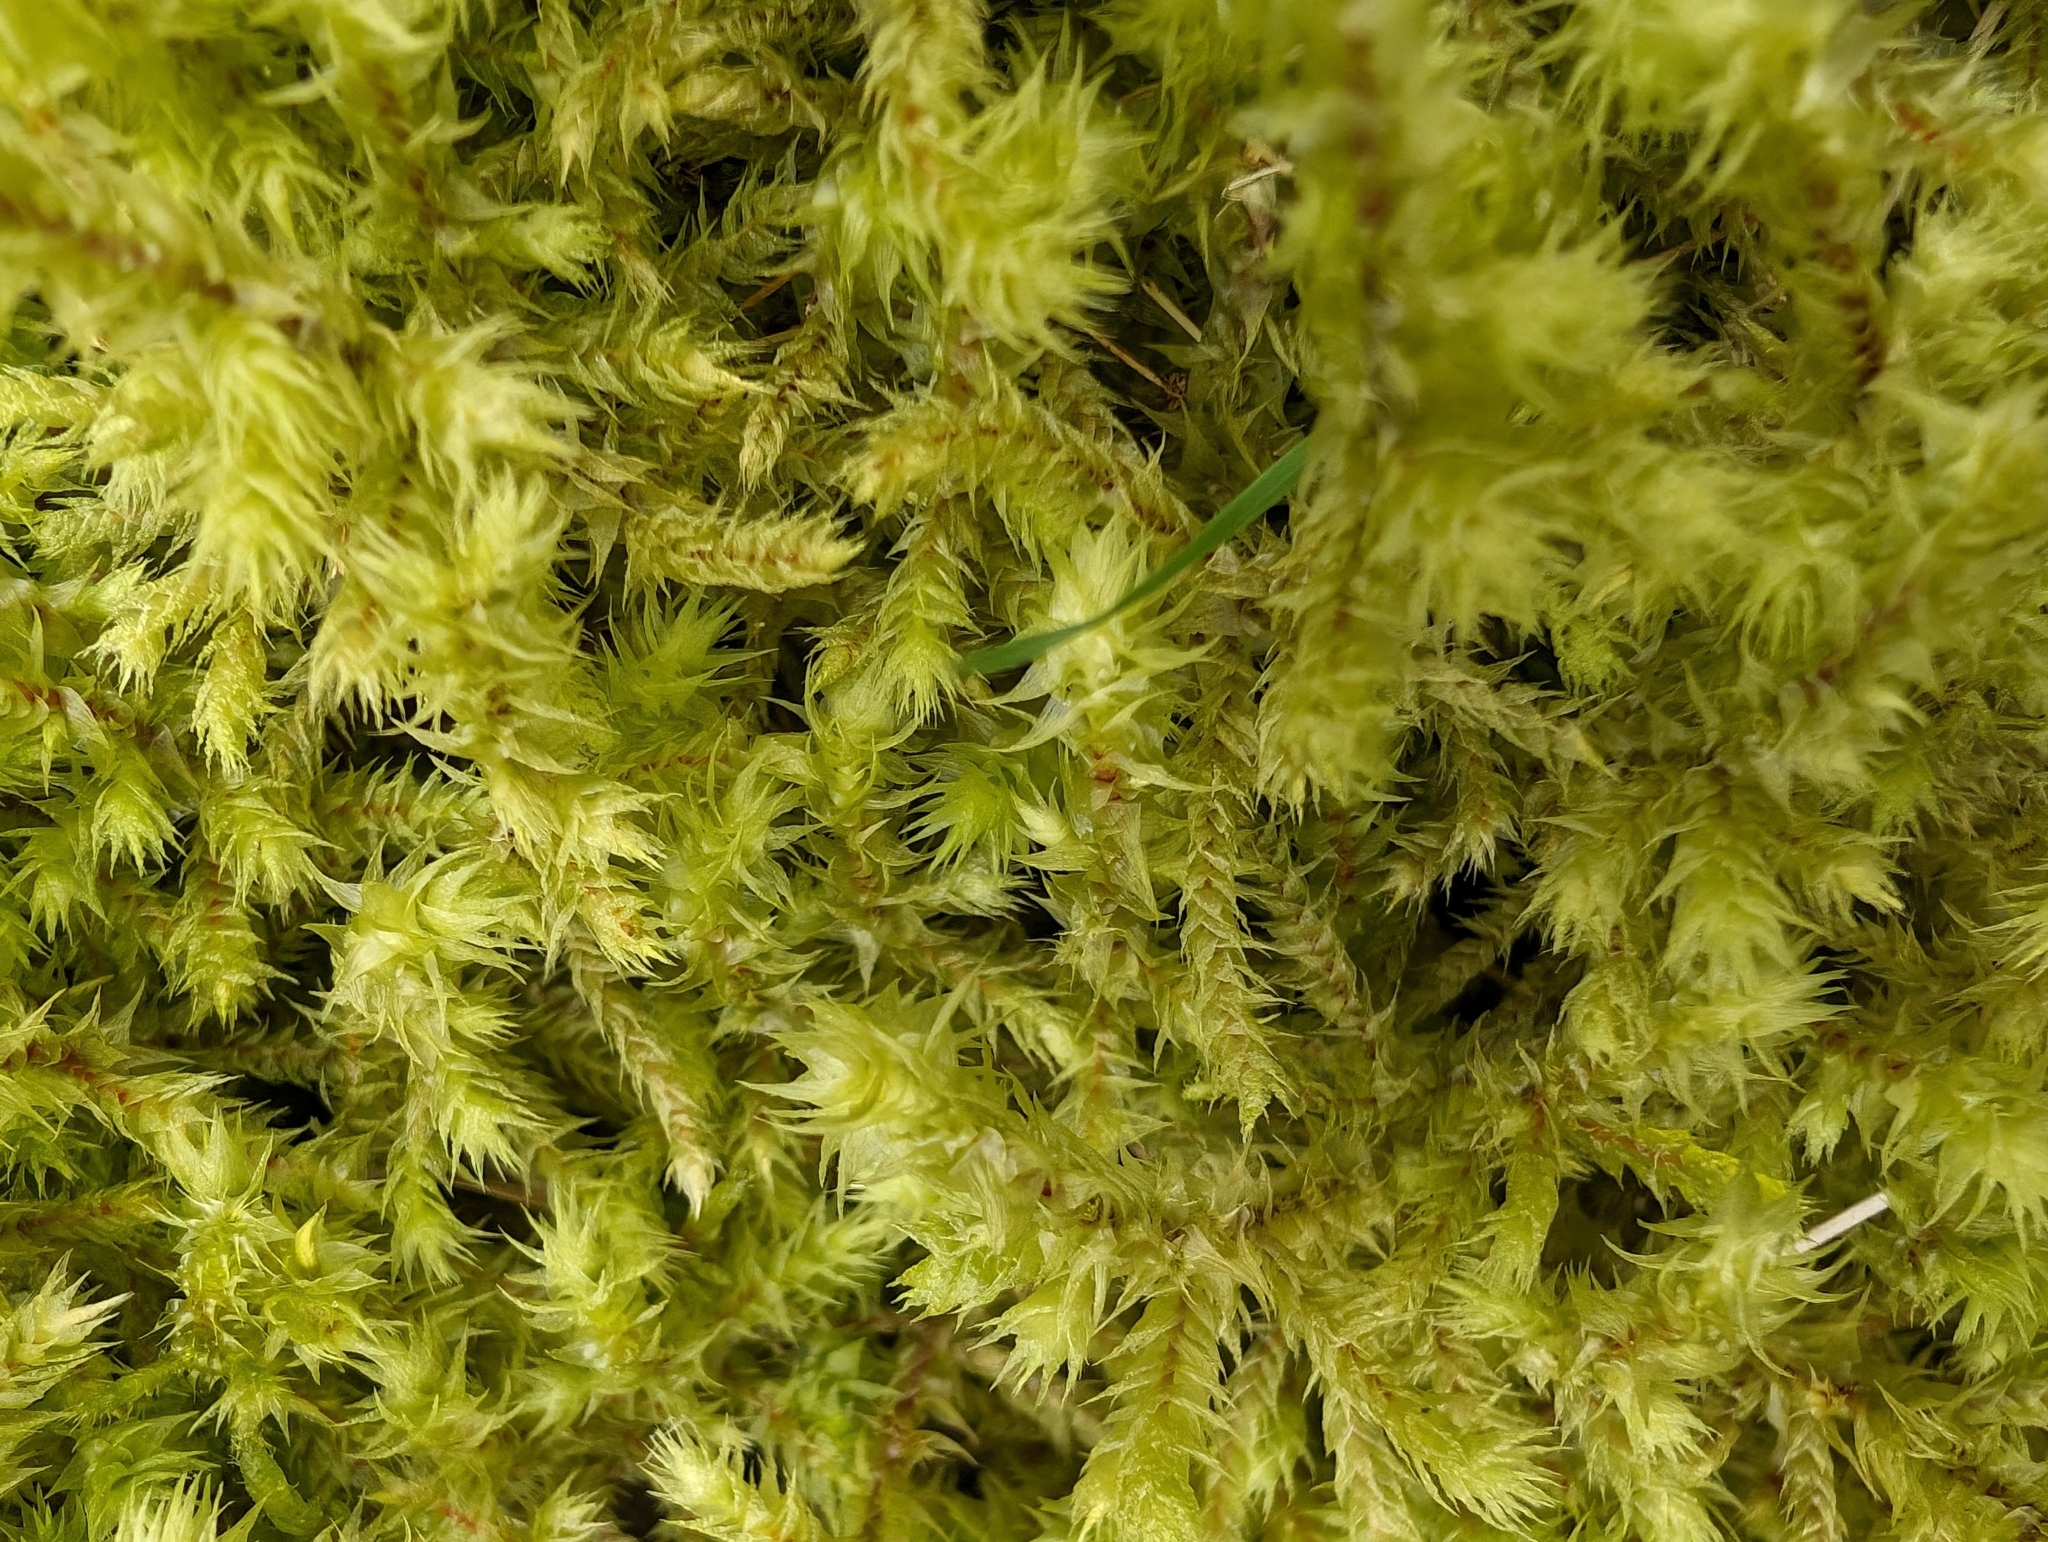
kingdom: Plantae
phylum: Bryophyta
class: Bryopsida
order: Hypnales
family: Hylocomiaceae
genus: Hylocomiadelphus
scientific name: Hylocomiadelphus triquetrus
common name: Rough goose neck moss
